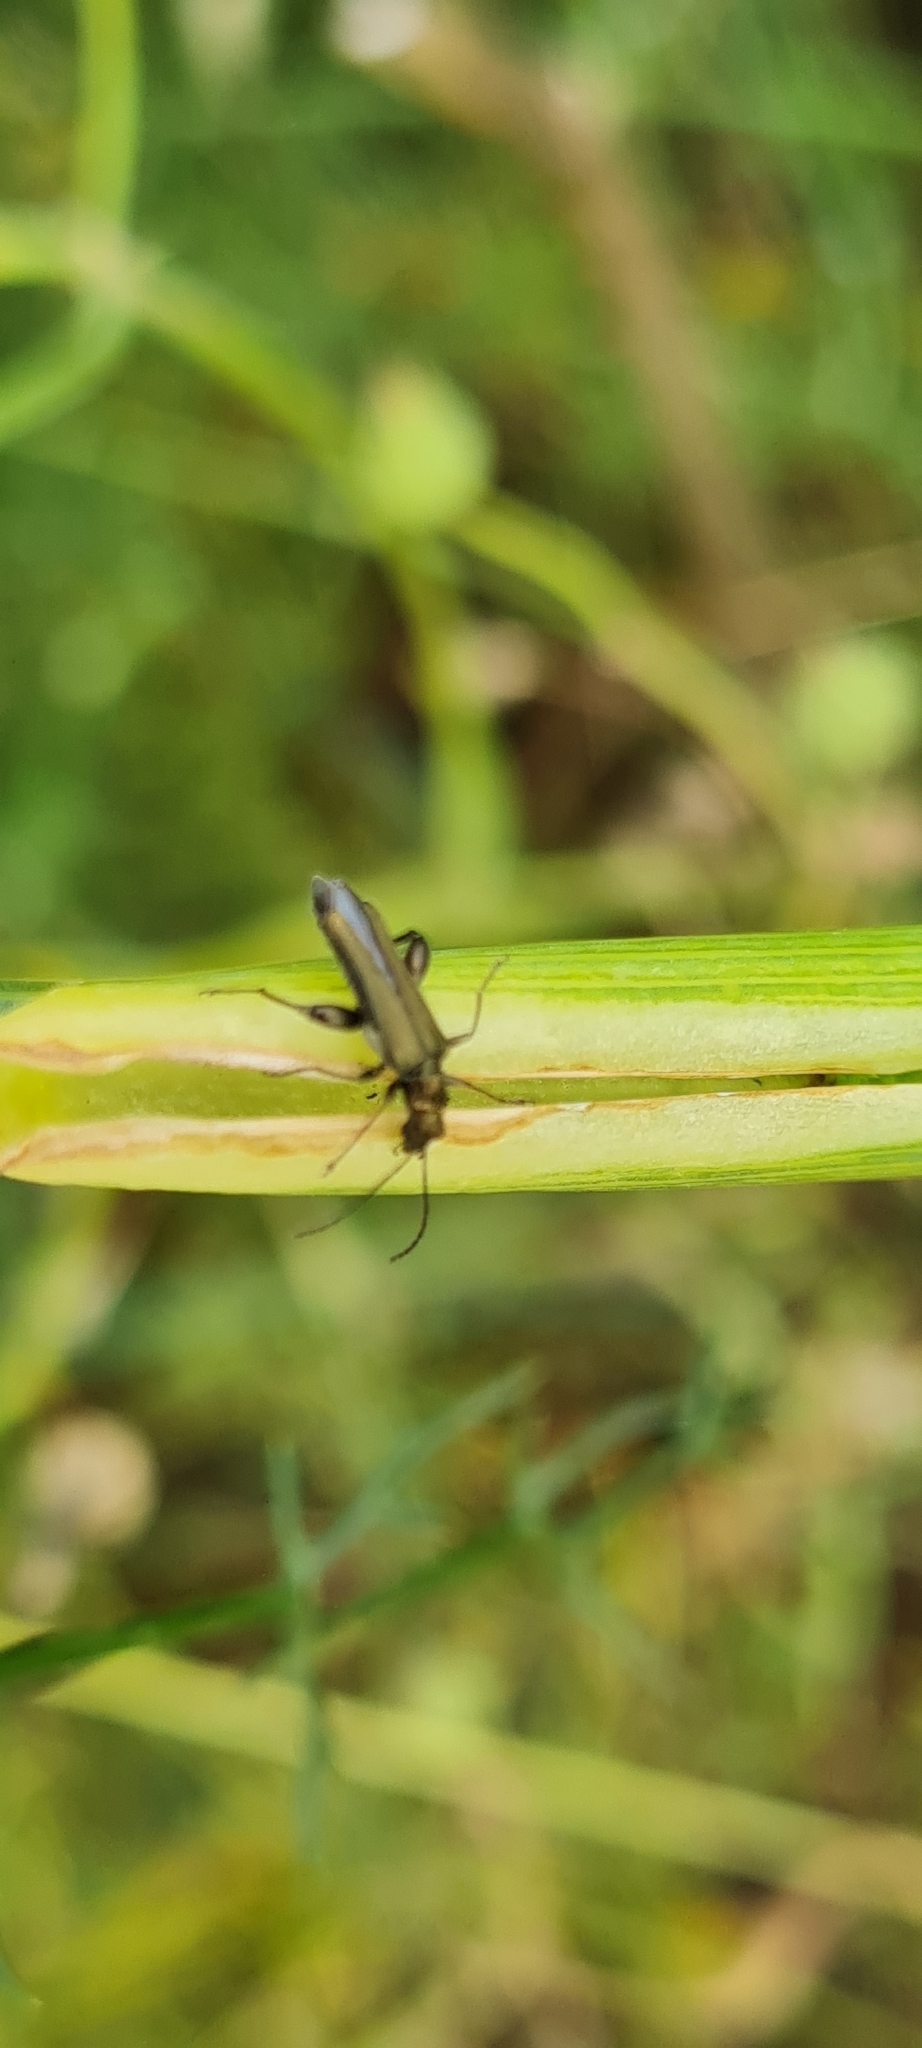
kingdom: Animalia
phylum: Arthropoda
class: Insecta
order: Coleoptera
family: Oedemeridae
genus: Oedemera
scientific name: Oedemera flavipes
